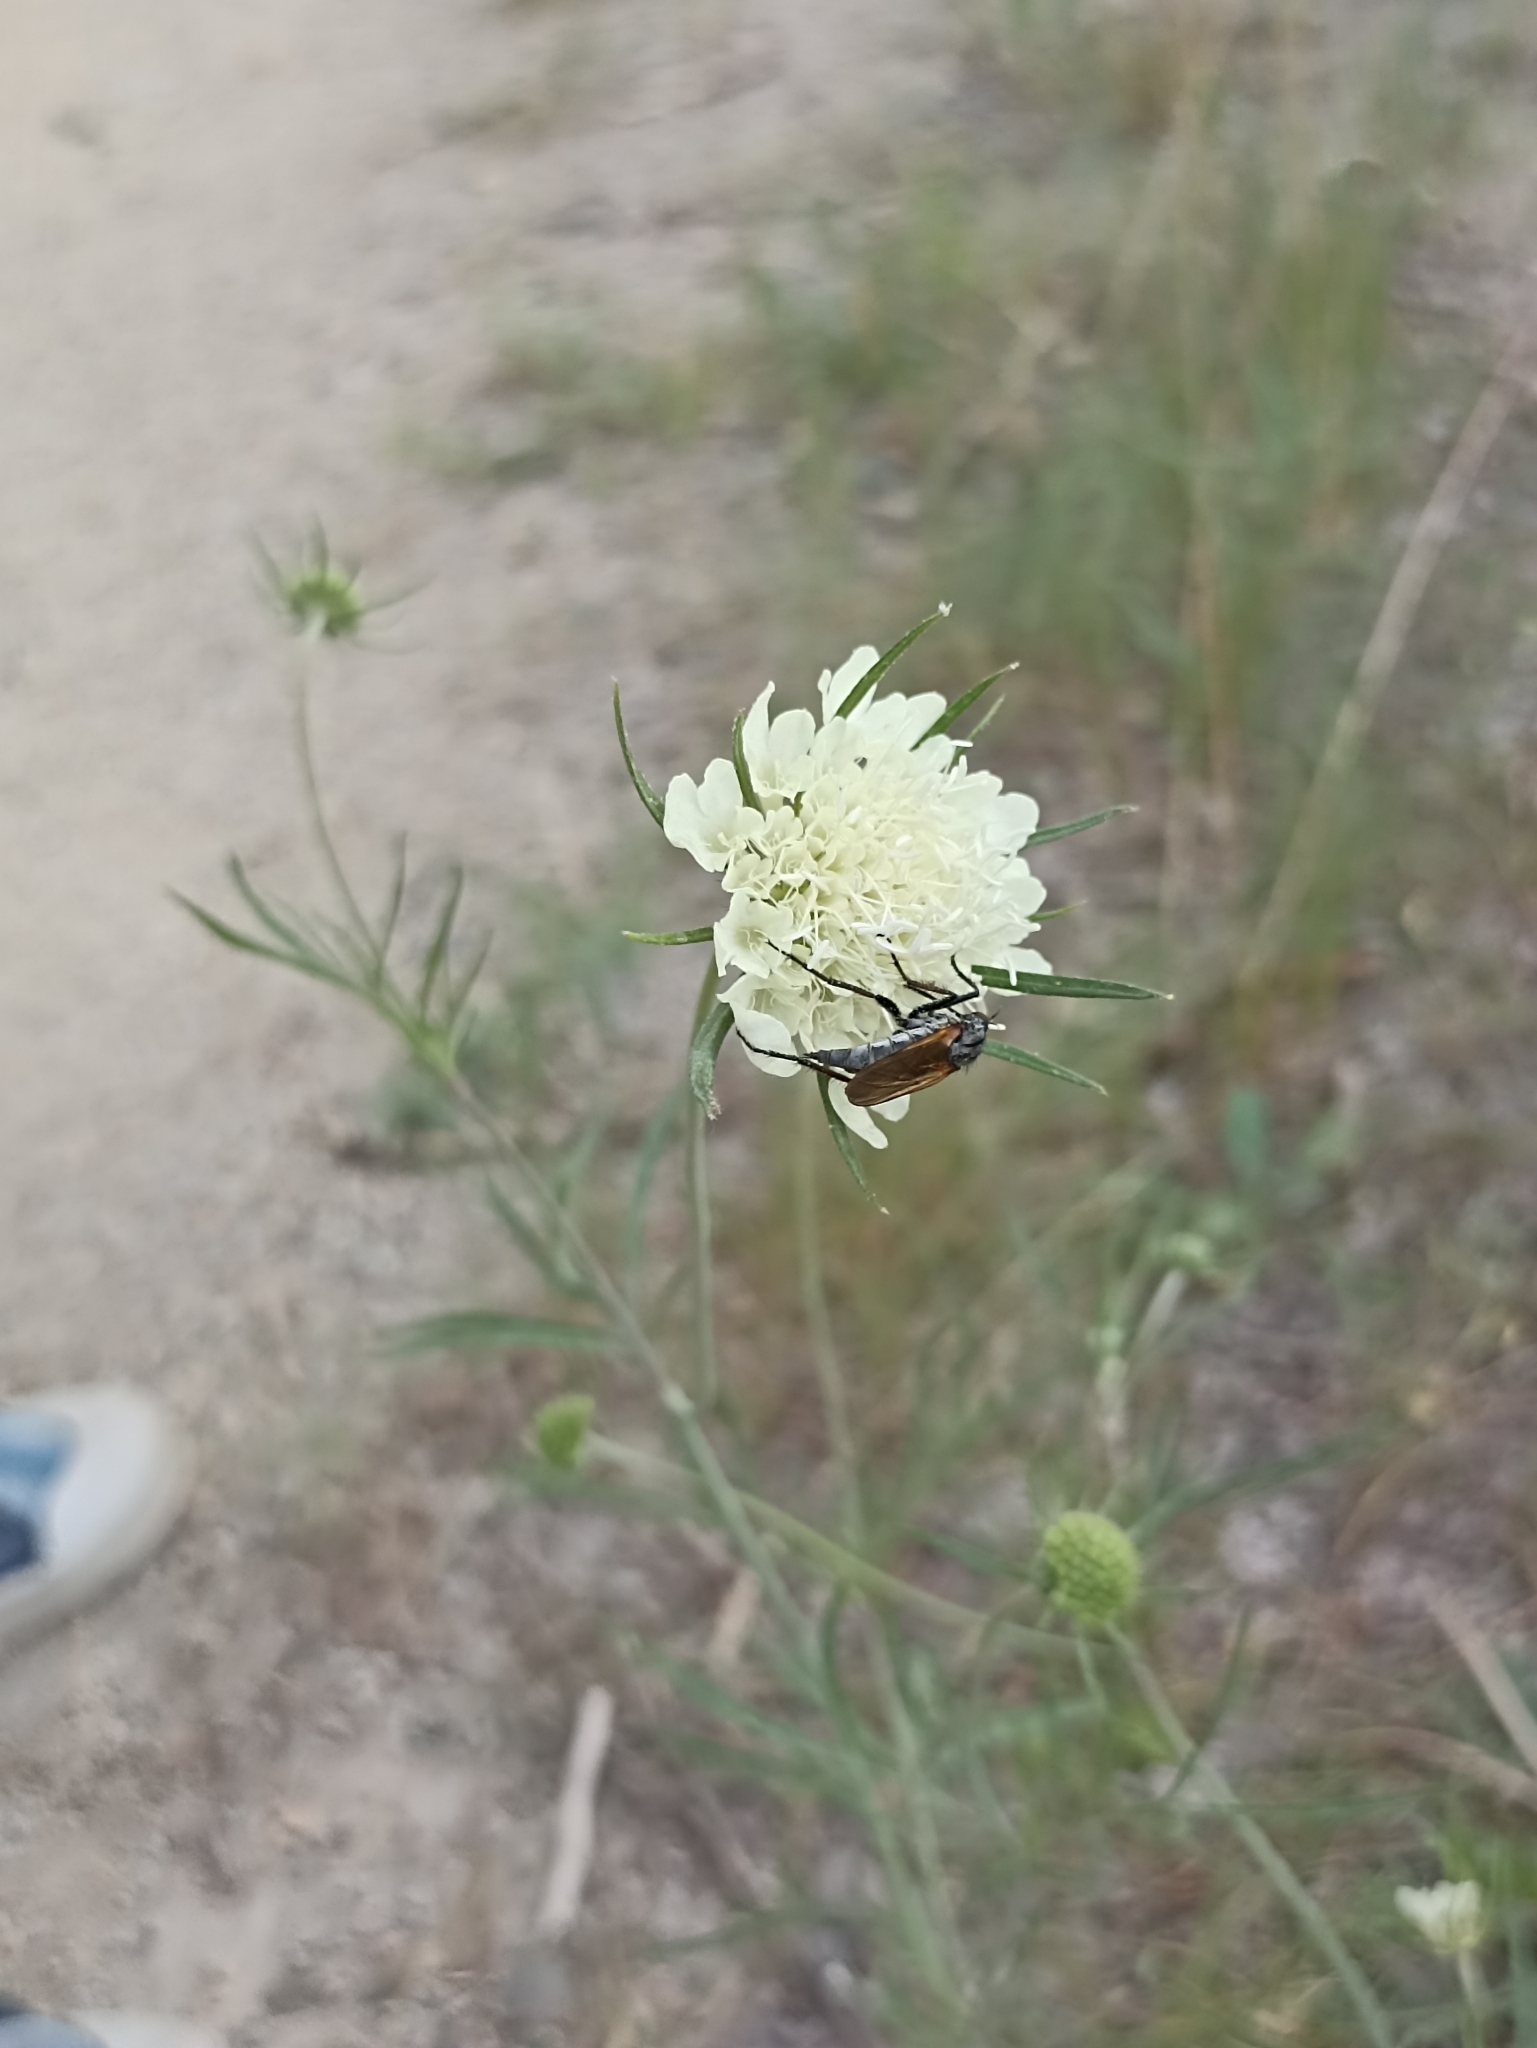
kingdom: Plantae
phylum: Tracheophyta
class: Magnoliopsida
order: Dipsacales
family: Caprifoliaceae
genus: Scabiosa
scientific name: Scabiosa ochroleuca
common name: Cream pincushions
